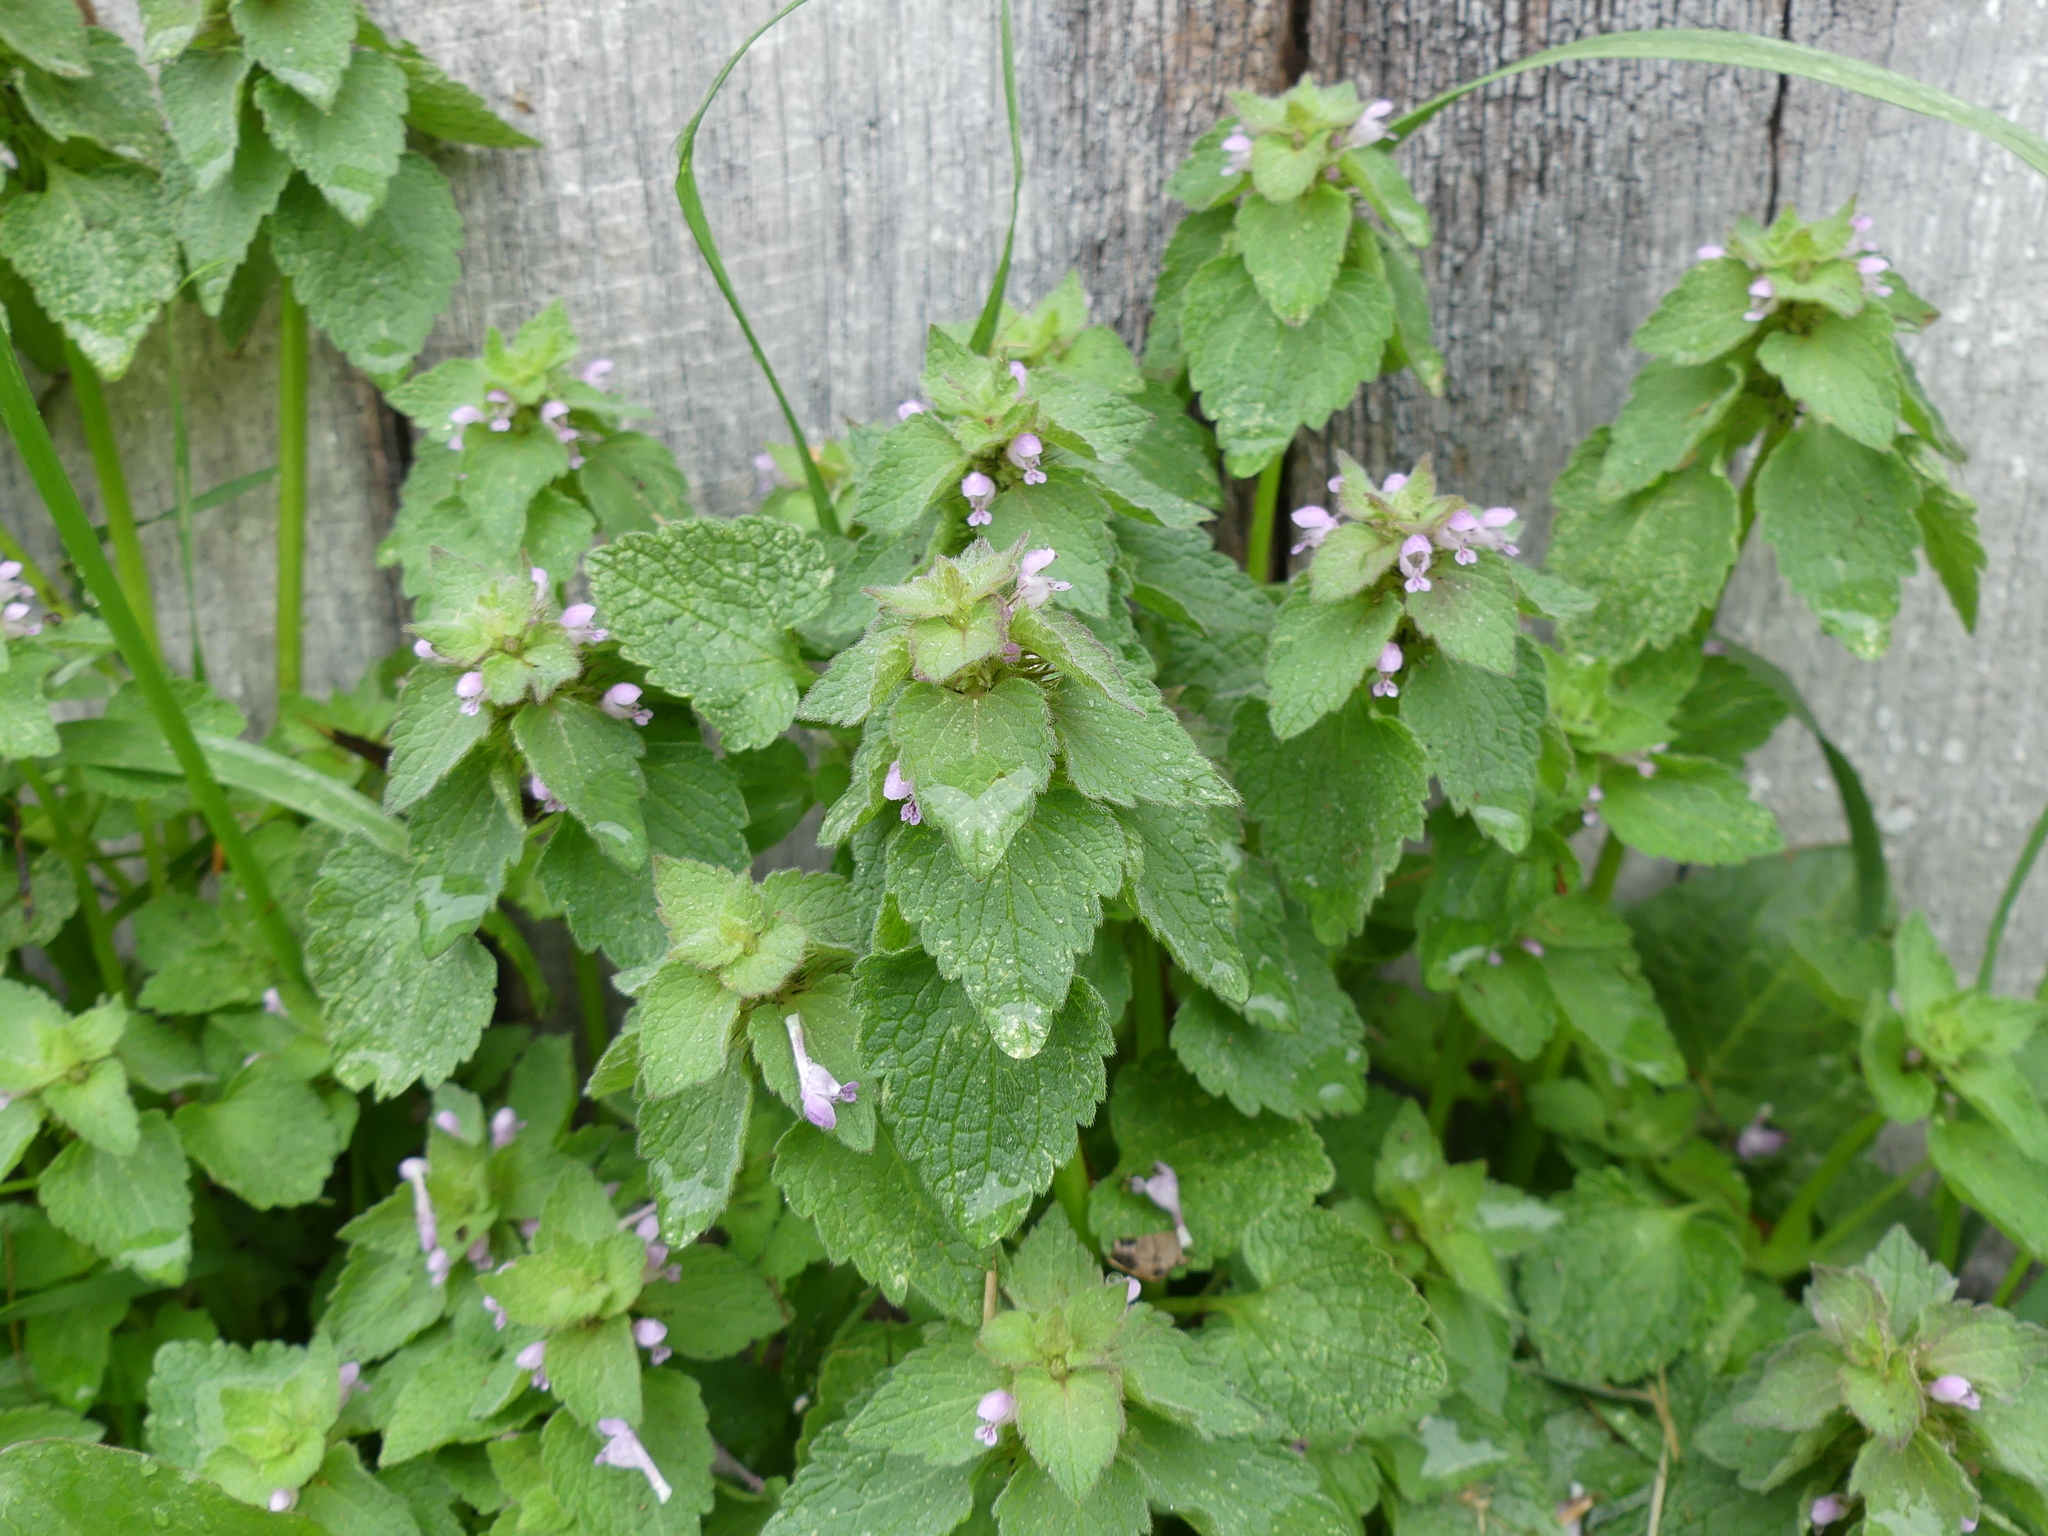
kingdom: Plantae
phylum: Tracheophyta
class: Magnoliopsida
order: Lamiales
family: Lamiaceae
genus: Lamium
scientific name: Lamium purpureum
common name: Red dead-nettle
